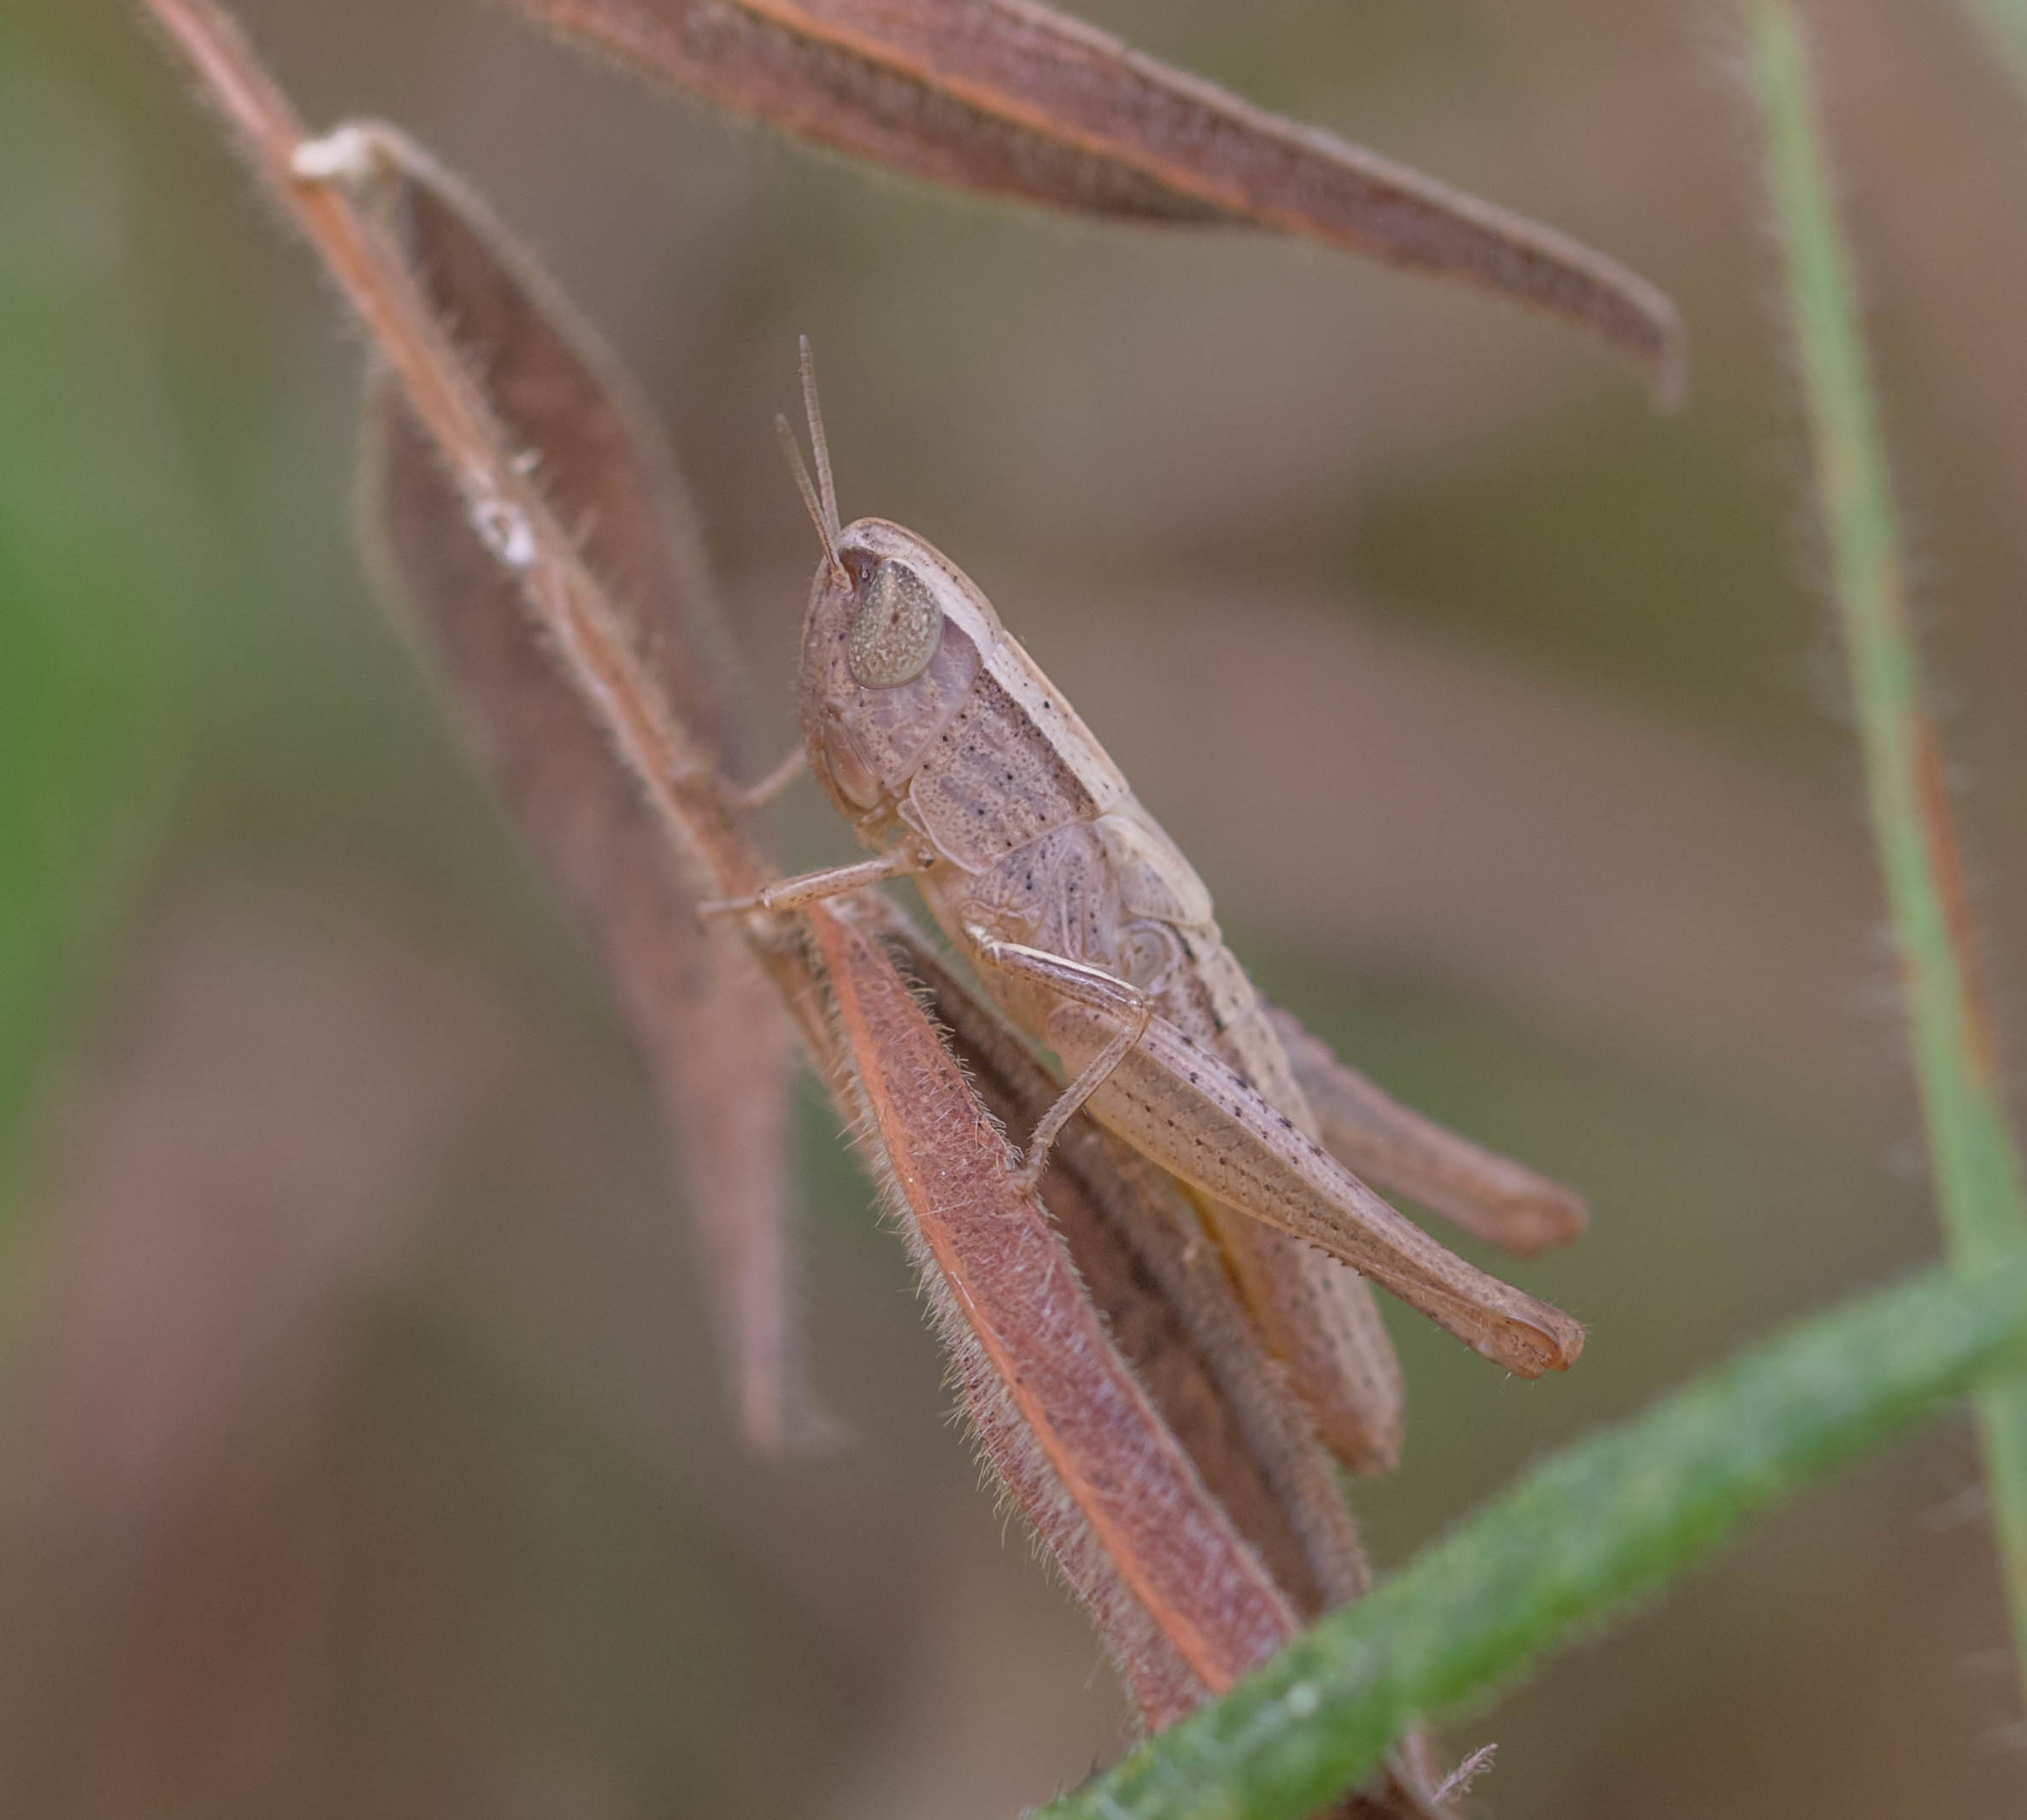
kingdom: Animalia
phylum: Arthropoda
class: Insecta
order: Orthoptera
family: Acrididae
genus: Amblytropidia
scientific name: Amblytropidia mysteca
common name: Brown winter grasshopper
